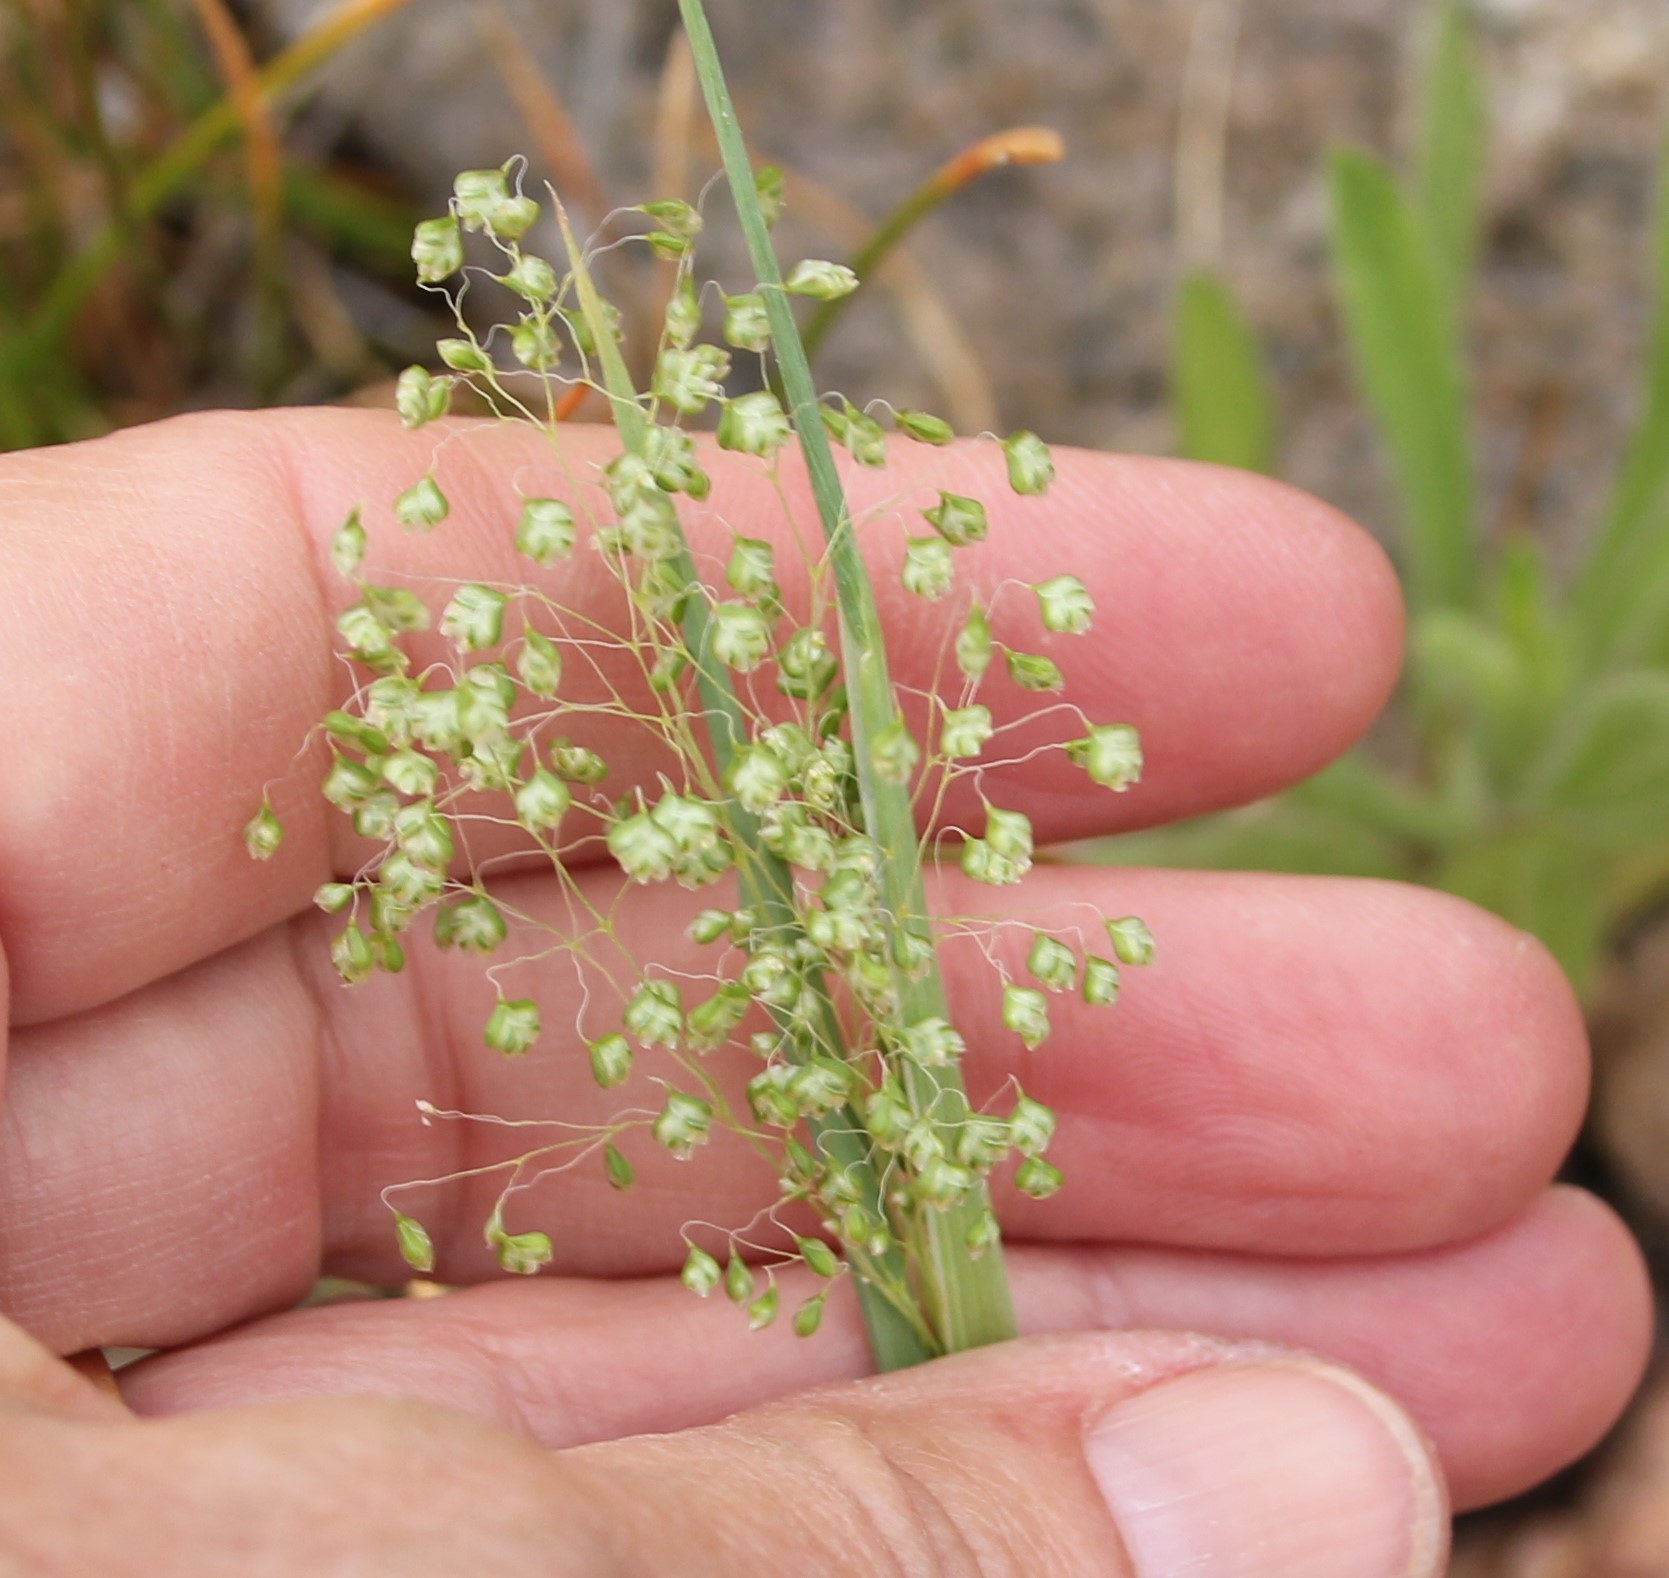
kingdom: Plantae
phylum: Tracheophyta
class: Liliopsida
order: Poales
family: Poaceae
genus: Briza
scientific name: Briza minor
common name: Lesser quaking-grass
